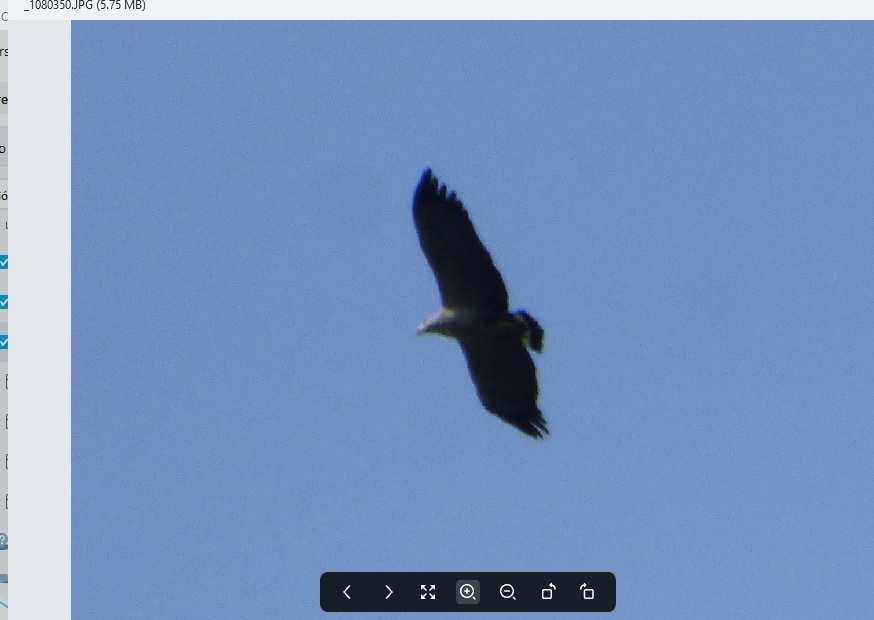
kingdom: Animalia
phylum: Chordata
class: Aves
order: Accipitriformes
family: Accipitridae
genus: Harpyhaliaetus
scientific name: Harpyhaliaetus coronatus
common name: Crowned solitary eagle
